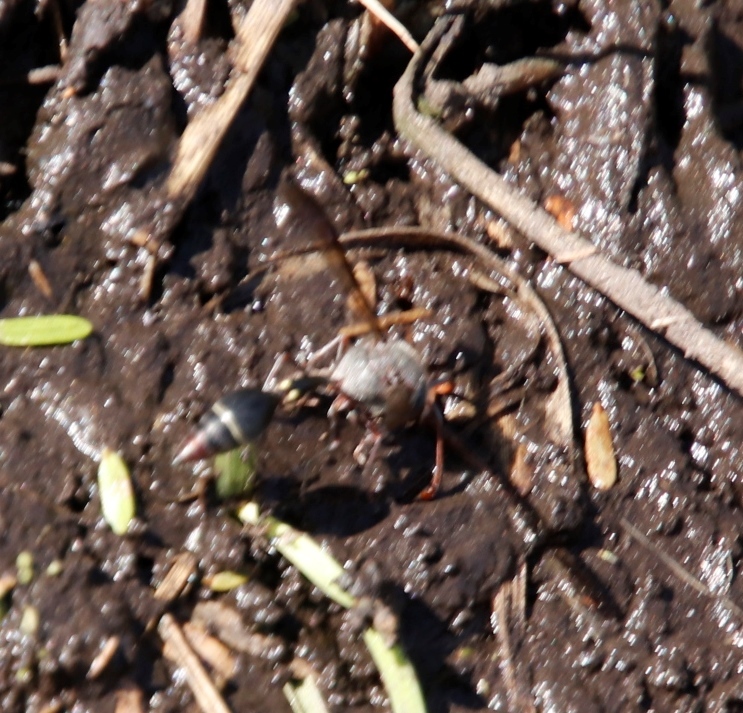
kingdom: Animalia
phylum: Arthropoda
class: Insecta
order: Hymenoptera
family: Eumenidae
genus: Delta
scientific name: Delta phthisicum
